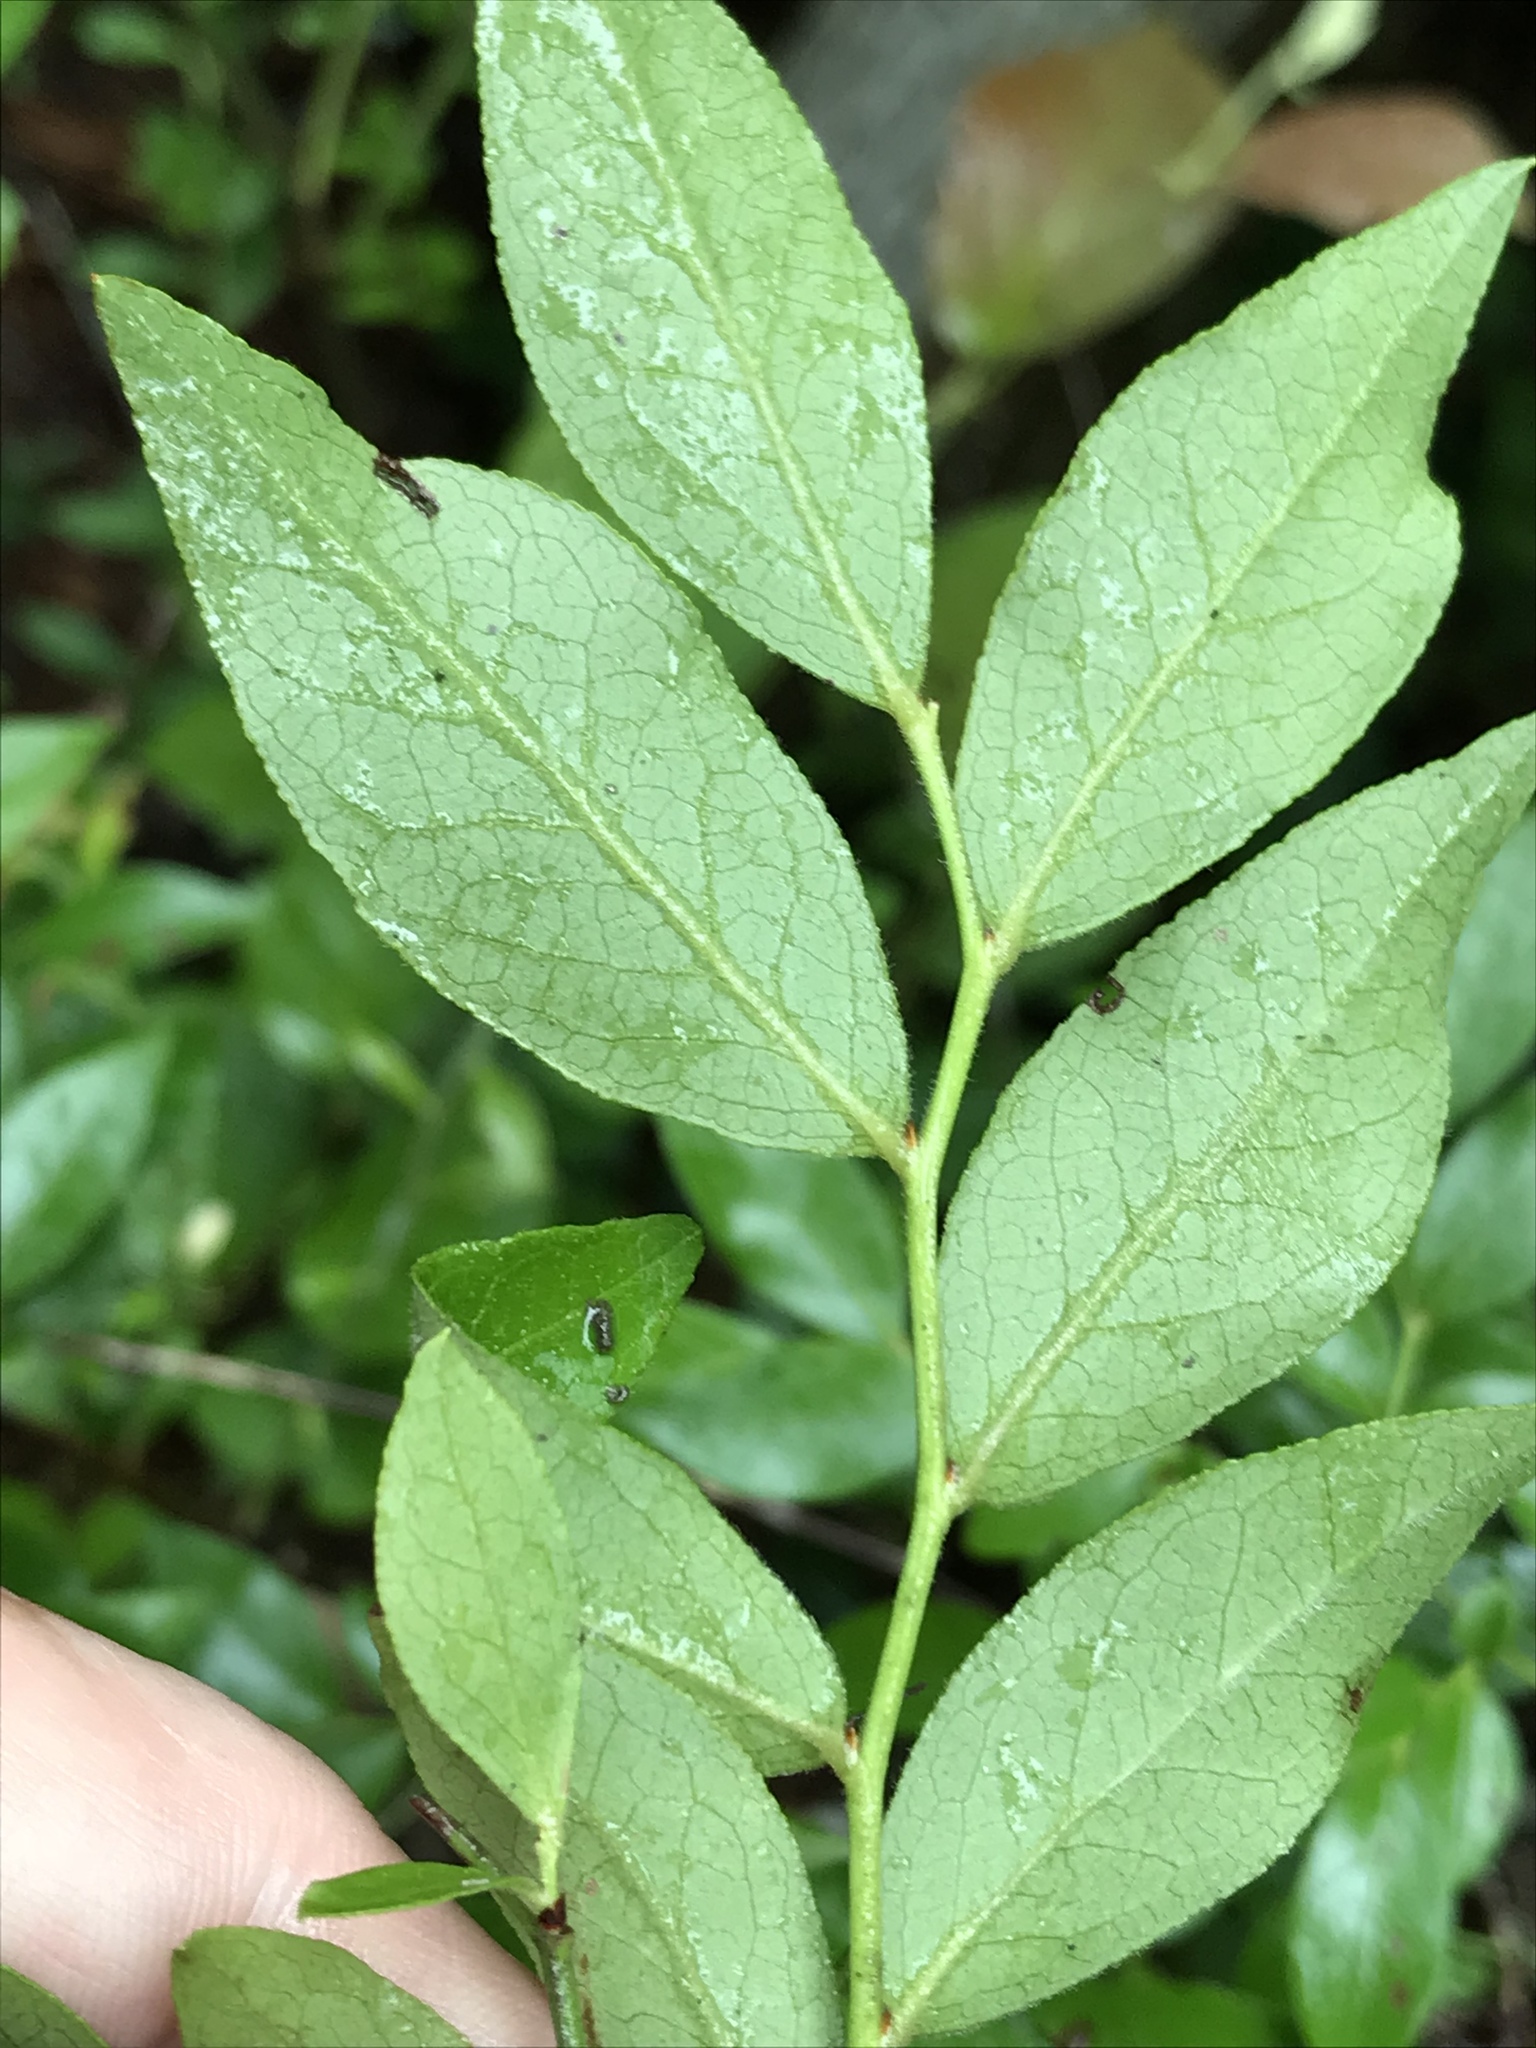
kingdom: Plantae
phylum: Tracheophyta
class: Magnoliopsida
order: Ericales
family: Ericaceae
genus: Vaccinium
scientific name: Vaccinium corymbosum
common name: Blueberry
